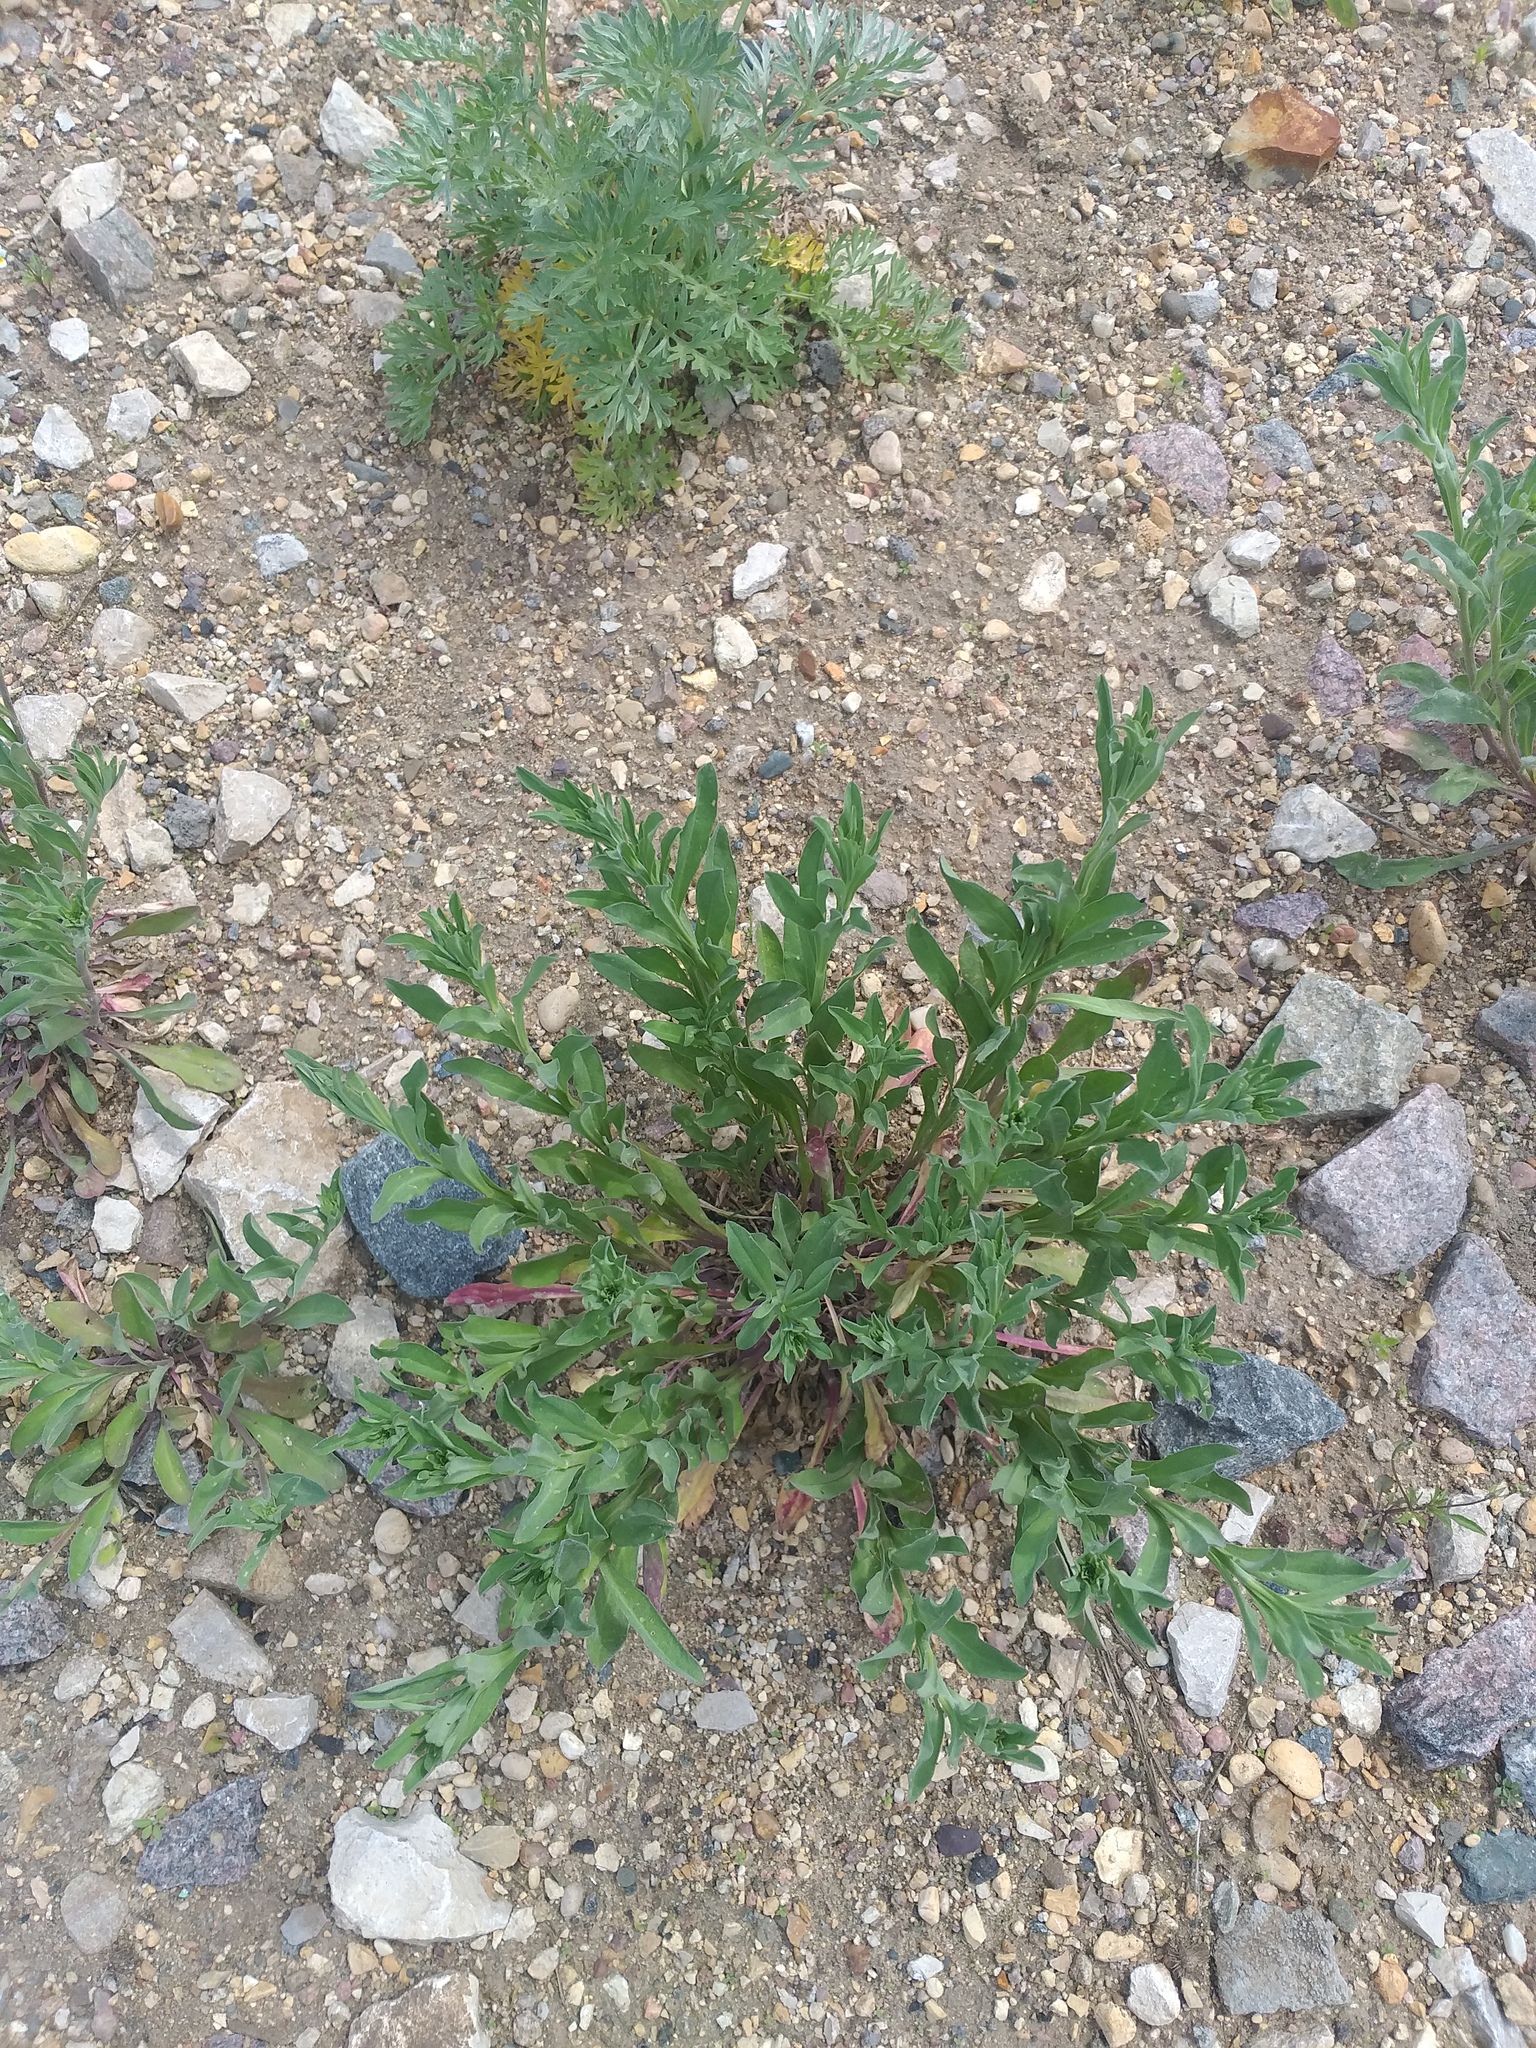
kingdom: Plantae
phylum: Tracheophyta
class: Magnoliopsida
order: Brassicales
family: Brassicaceae
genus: Berteroa
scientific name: Berteroa incana
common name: Hoary alison
